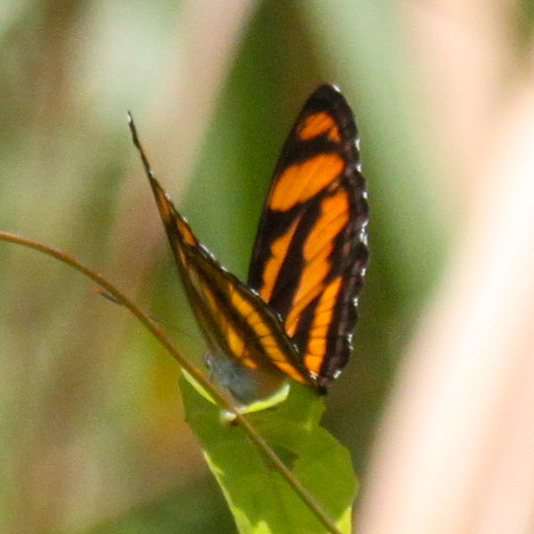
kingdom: Animalia
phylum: Arthropoda
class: Insecta
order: Lepidoptera
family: Nymphalidae
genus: Parathyma
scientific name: Parathyma nefte
